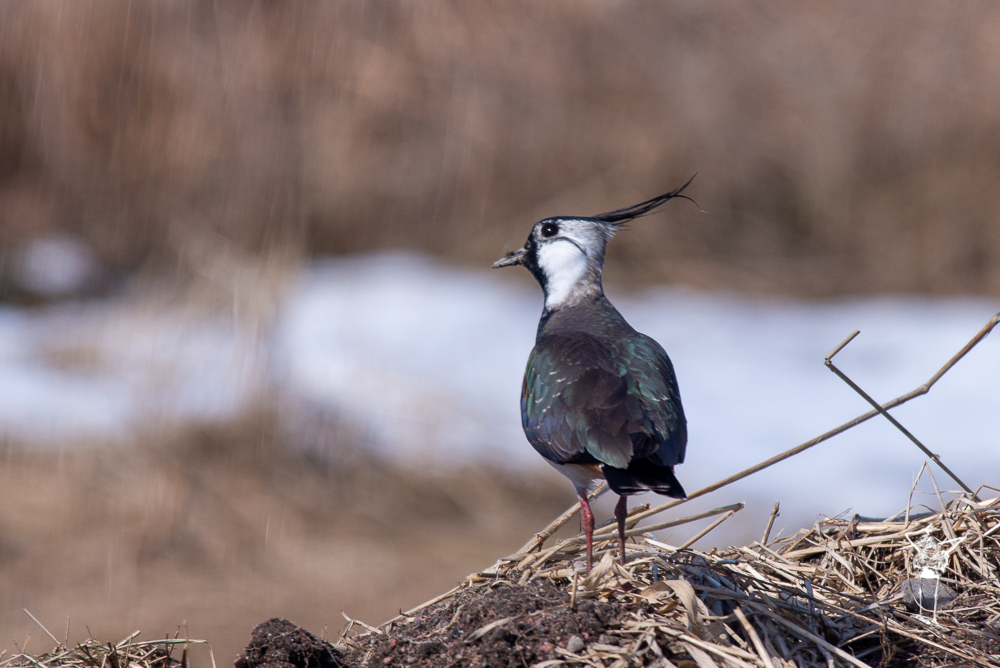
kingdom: Animalia
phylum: Chordata
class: Aves
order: Charadriiformes
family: Charadriidae
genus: Vanellus
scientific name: Vanellus vanellus
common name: Northern lapwing
